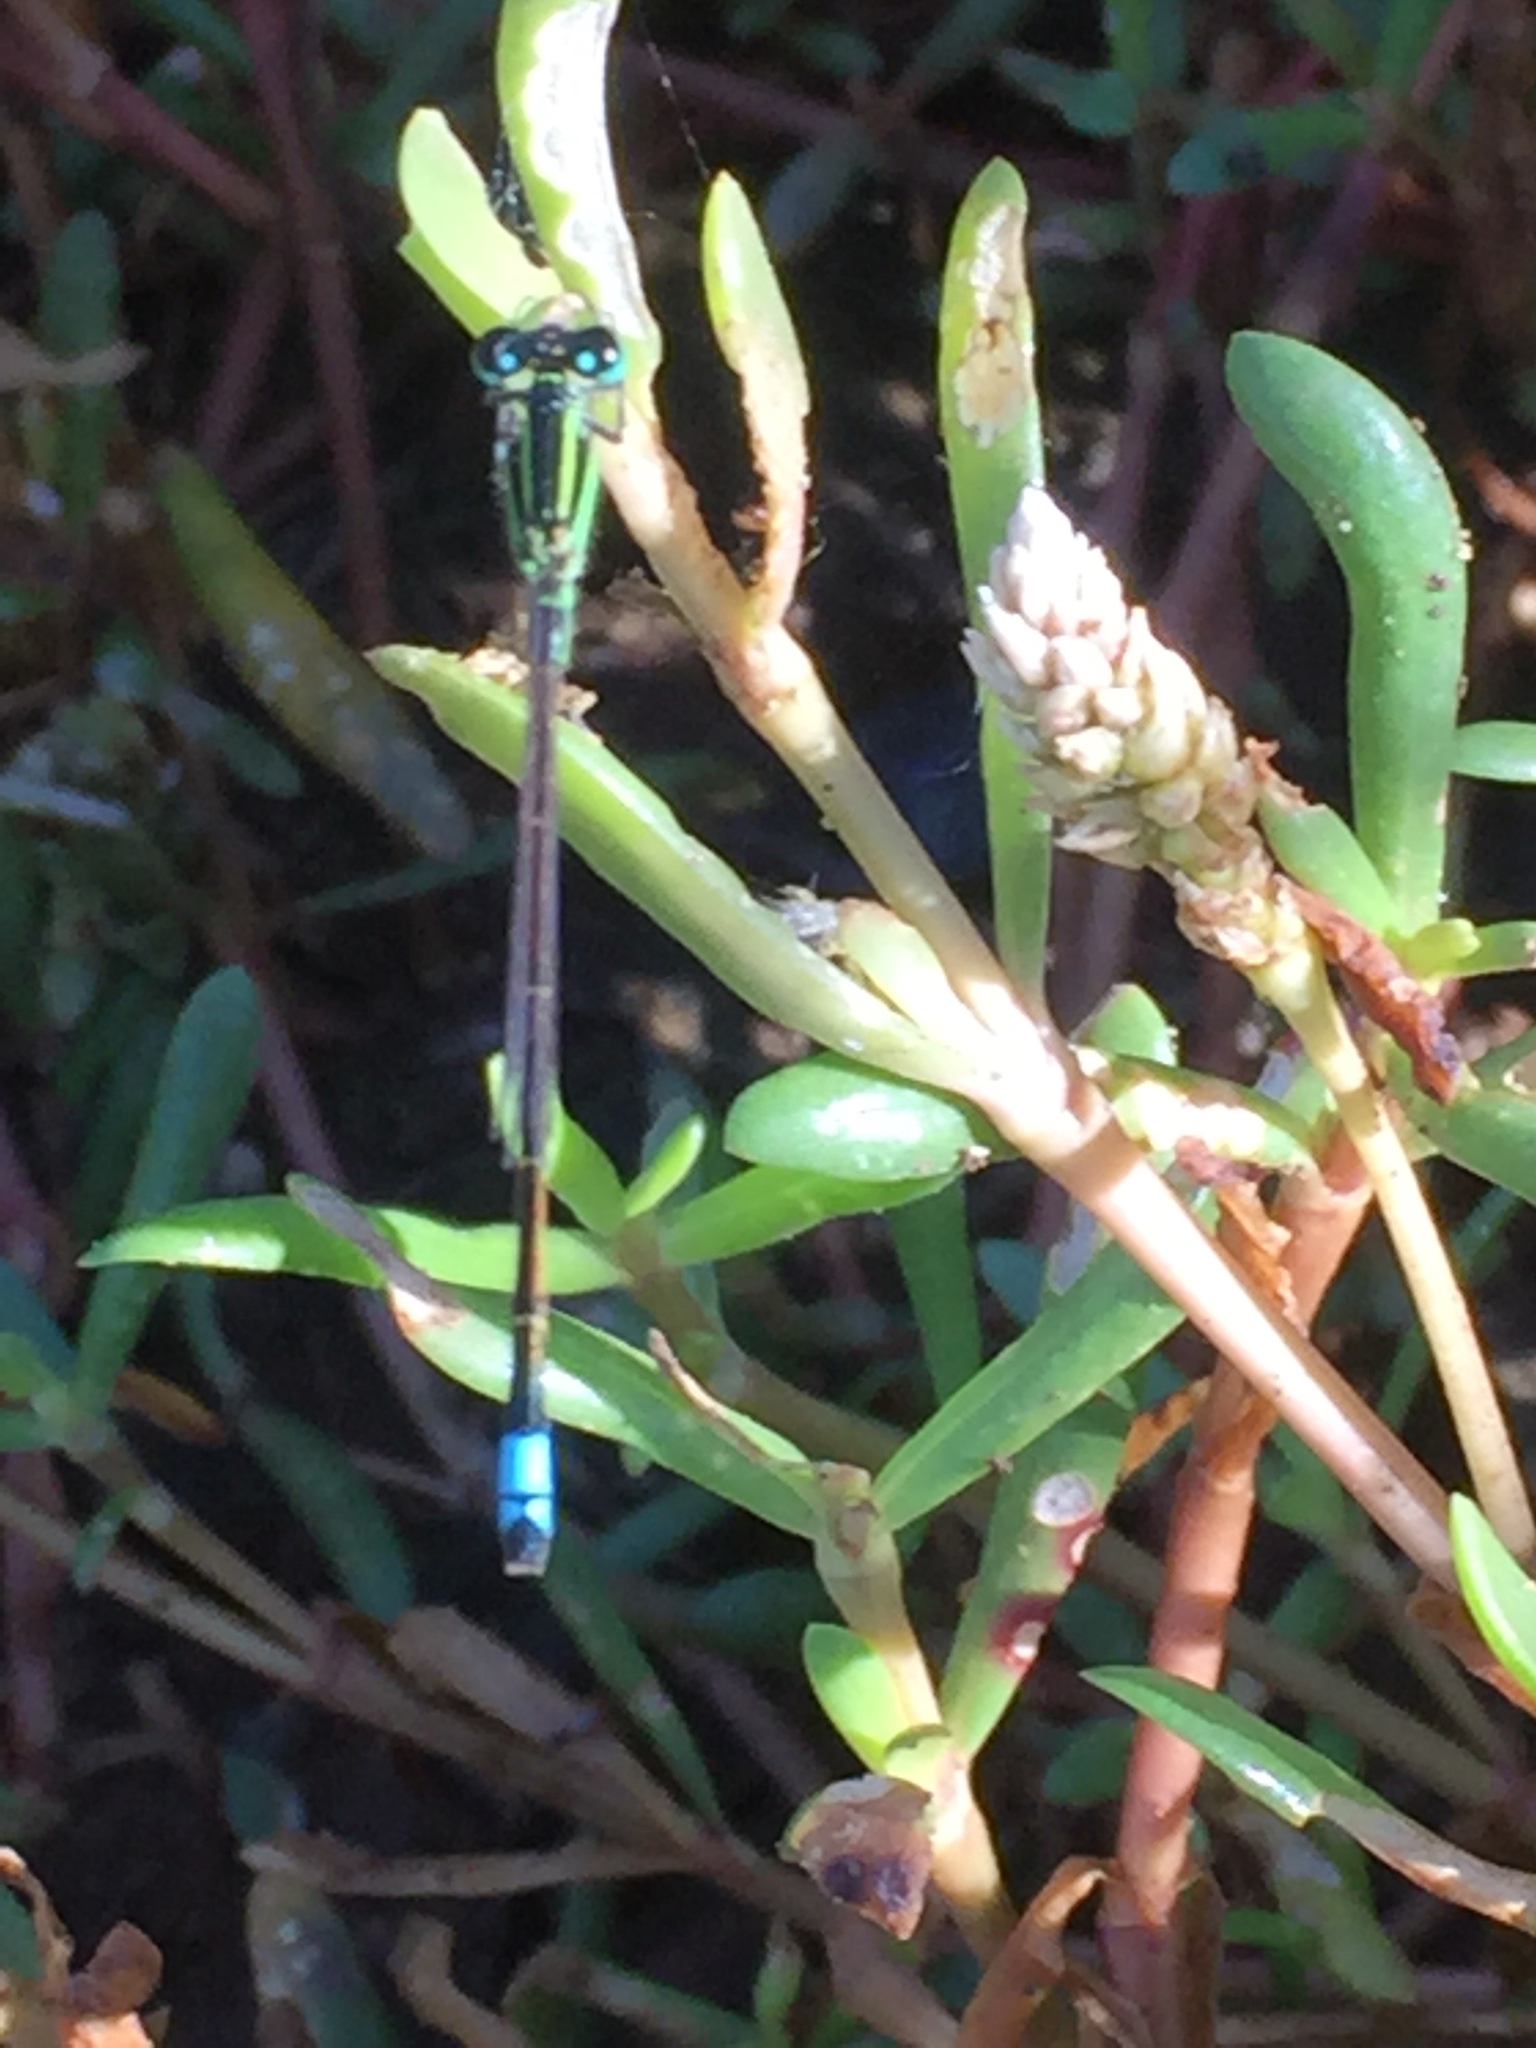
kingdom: Animalia
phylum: Arthropoda
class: Insecta
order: Odonata
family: Coenagrionidae
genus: Ischnura
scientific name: Ischnura ramburii
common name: Rambur's forktail
